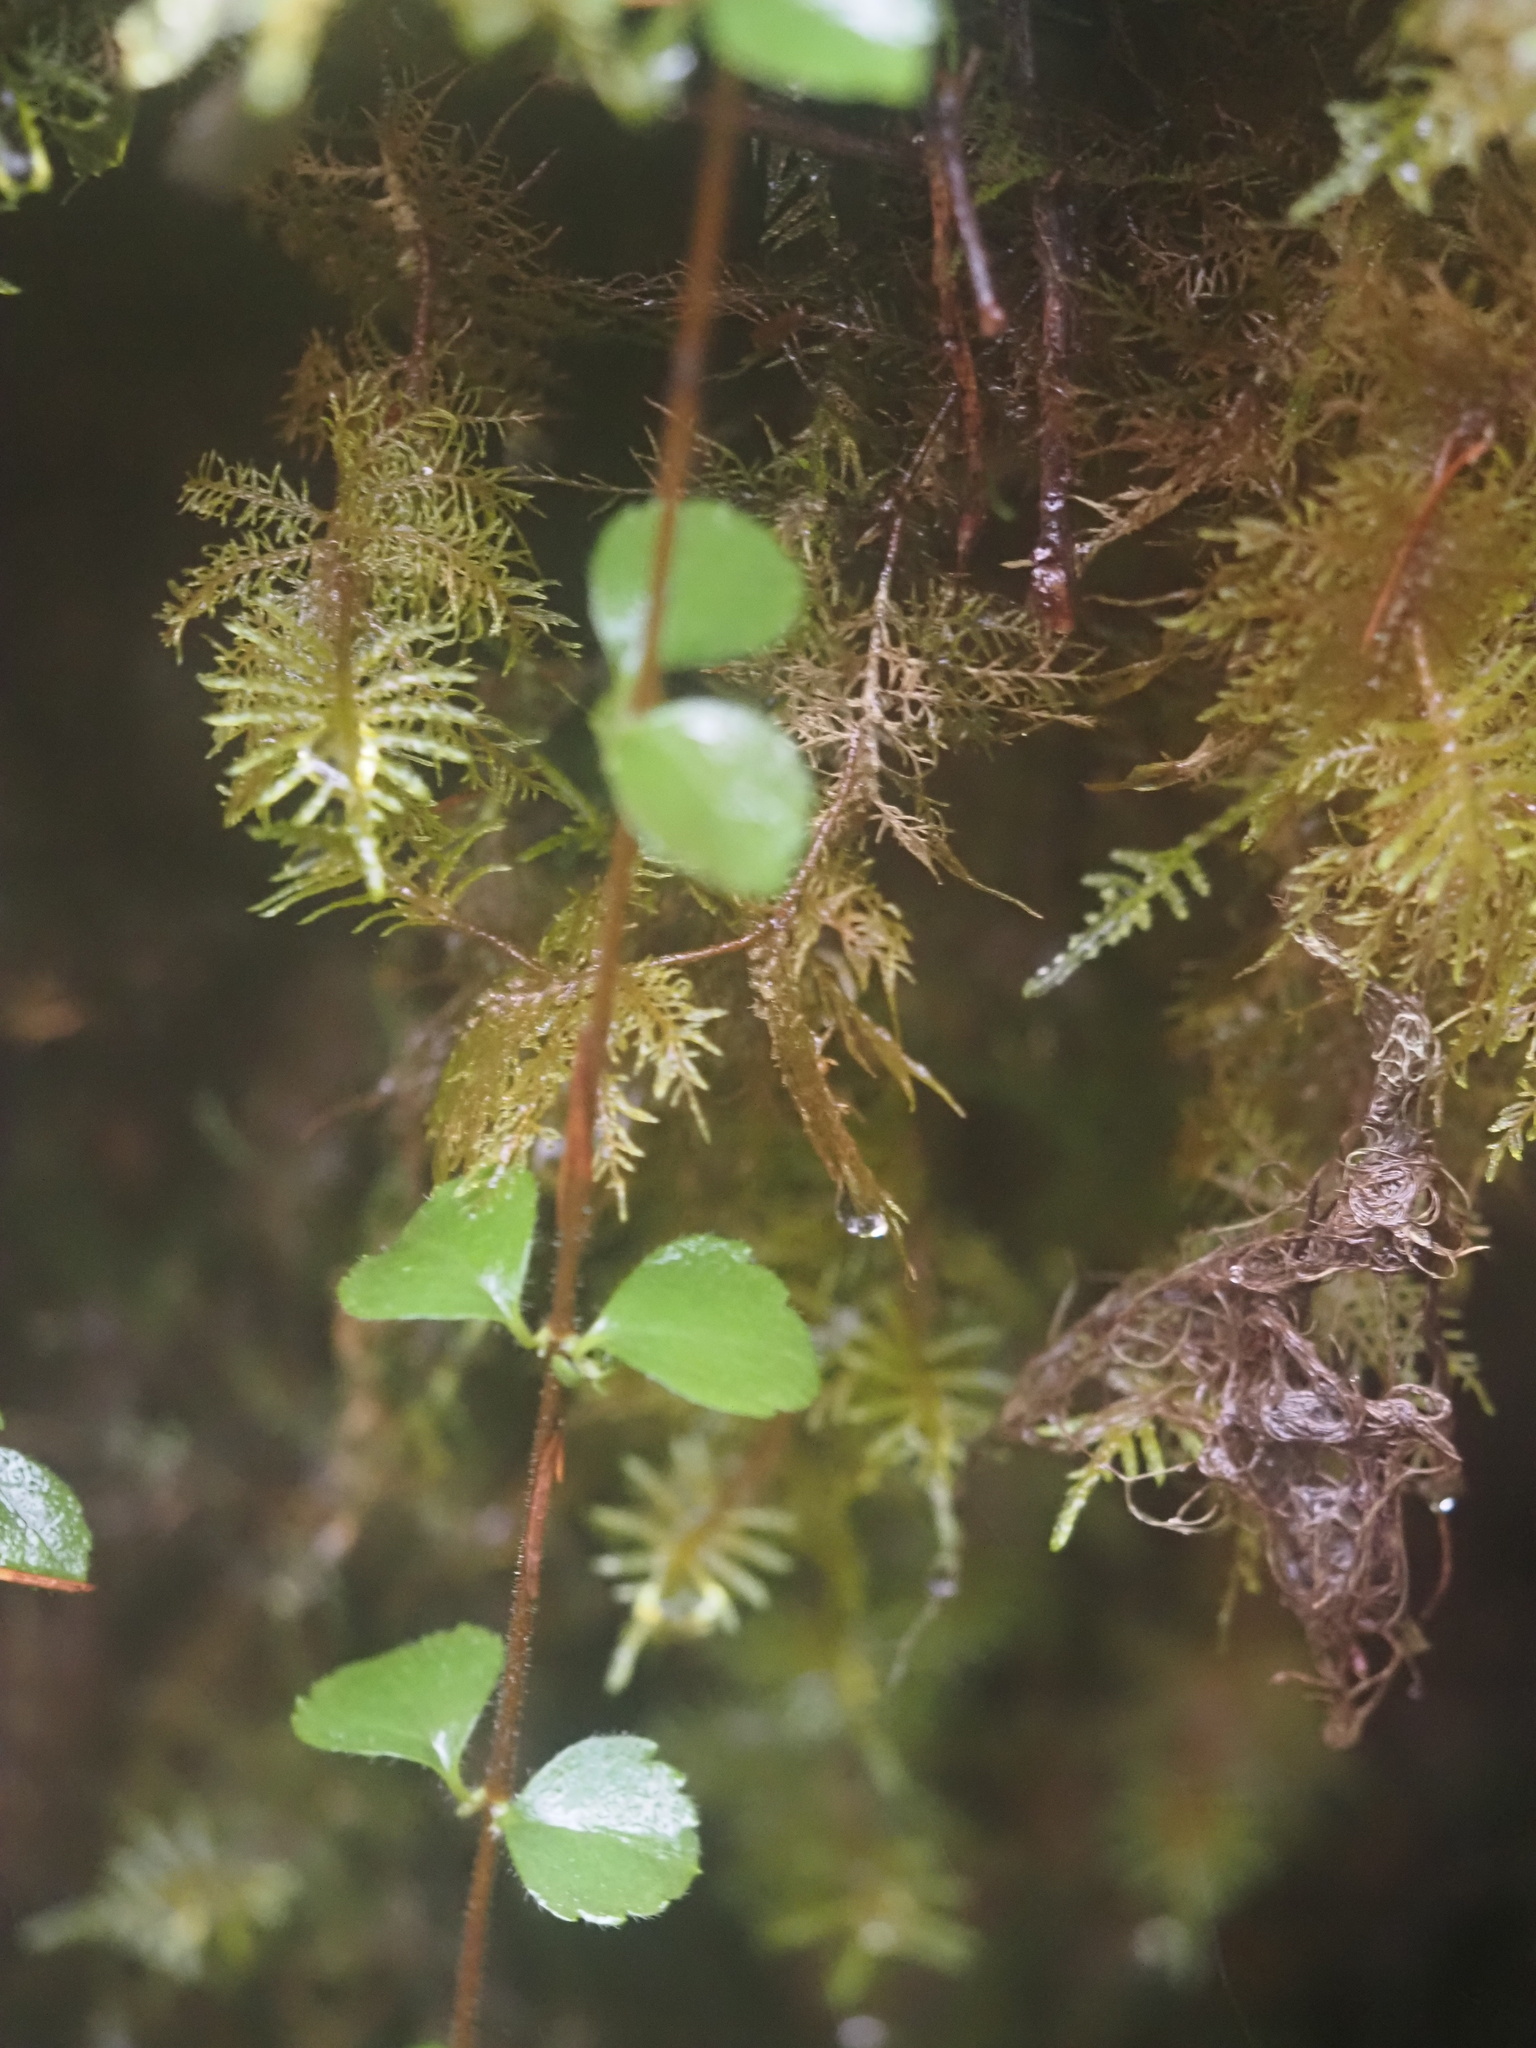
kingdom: Plantae
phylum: Tracheophyta
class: Magnoliopsida
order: Dipsacales
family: Caprifoliaceae
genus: Linnaea
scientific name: Linnaea borealis
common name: Twinflower
